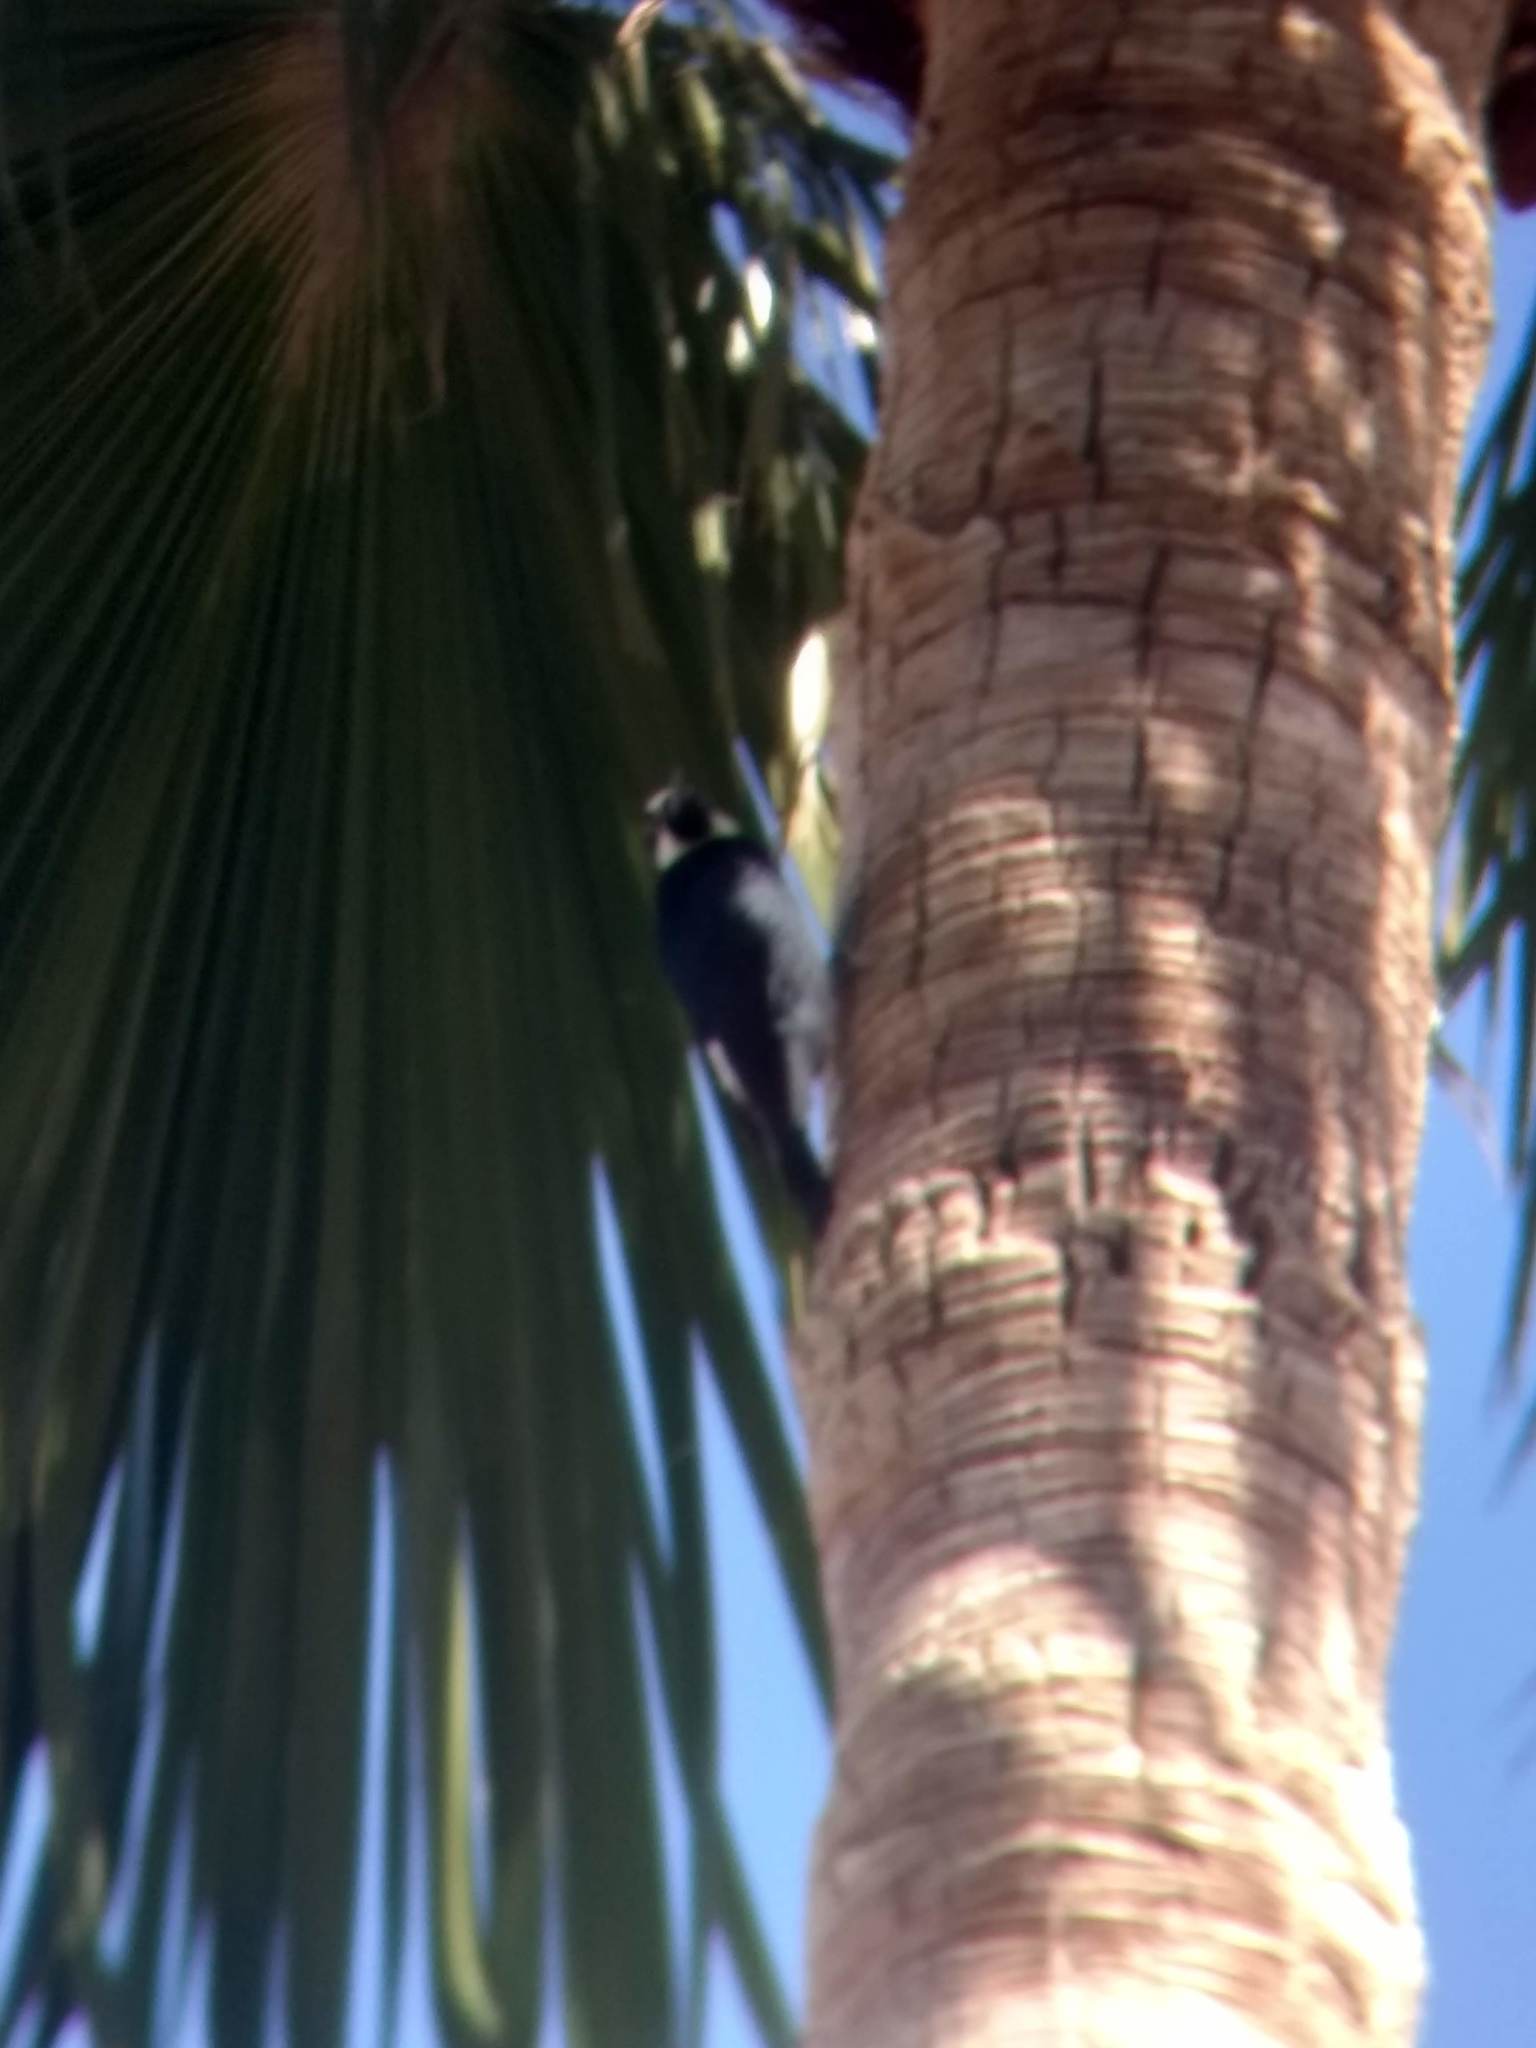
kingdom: Animalia
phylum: Chordata
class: Aves
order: Piciformes
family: Picidae
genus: Melanerpes
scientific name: Melanerpes formicivorus
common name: Acorn woodpecker
